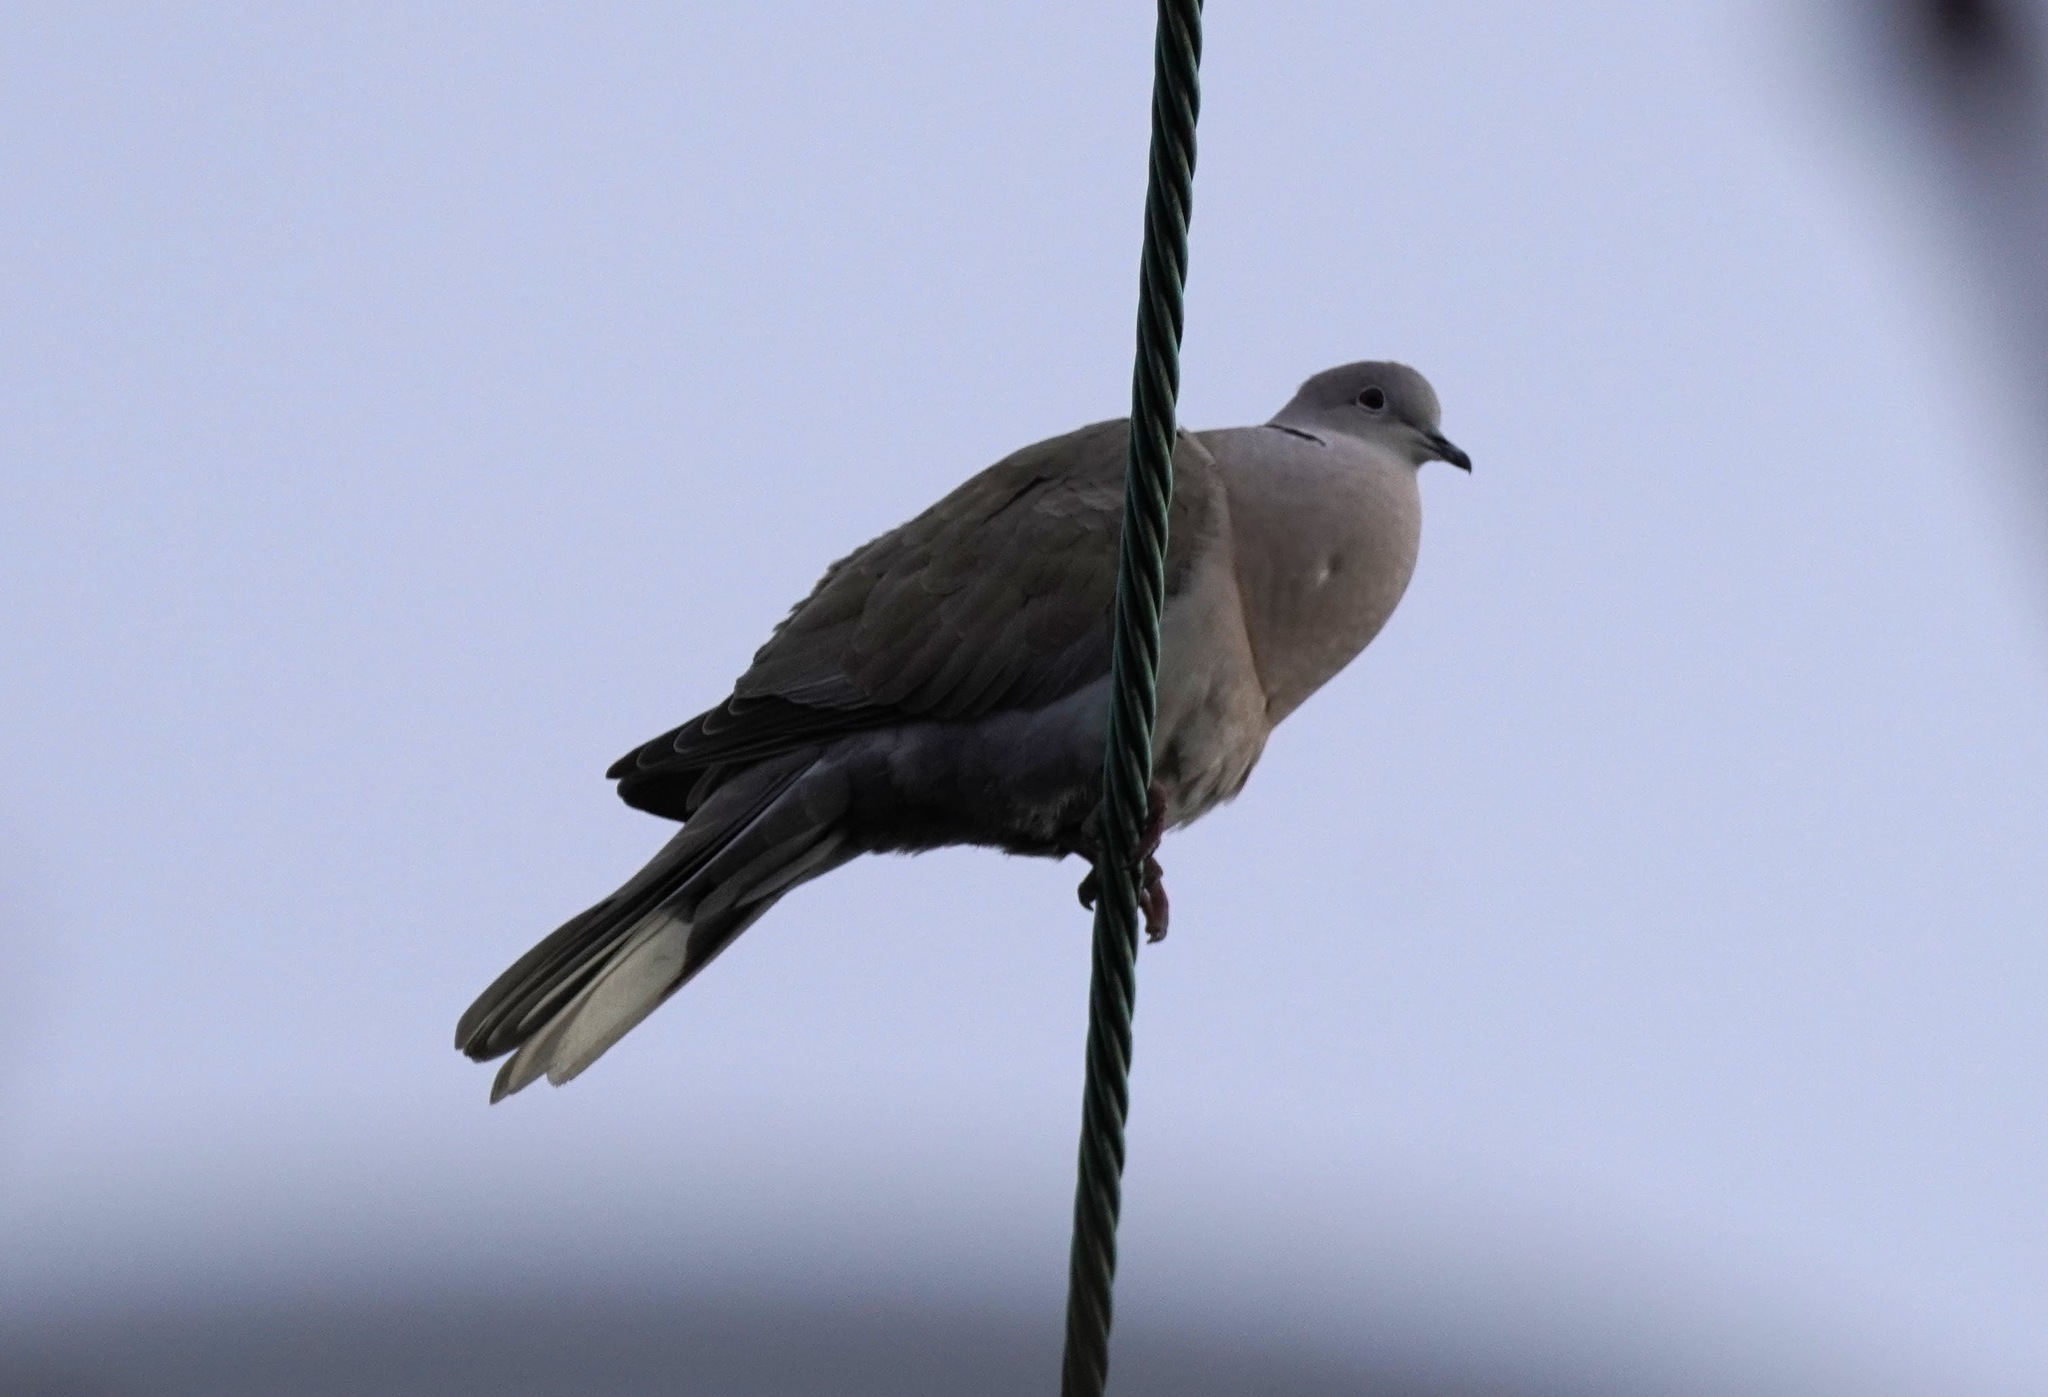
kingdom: Animalia
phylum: Chordata
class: Aves
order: Columbiformes
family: Columbidae
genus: Streptopelia
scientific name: Streptopelia decaocto
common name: Eurasian collared dove
